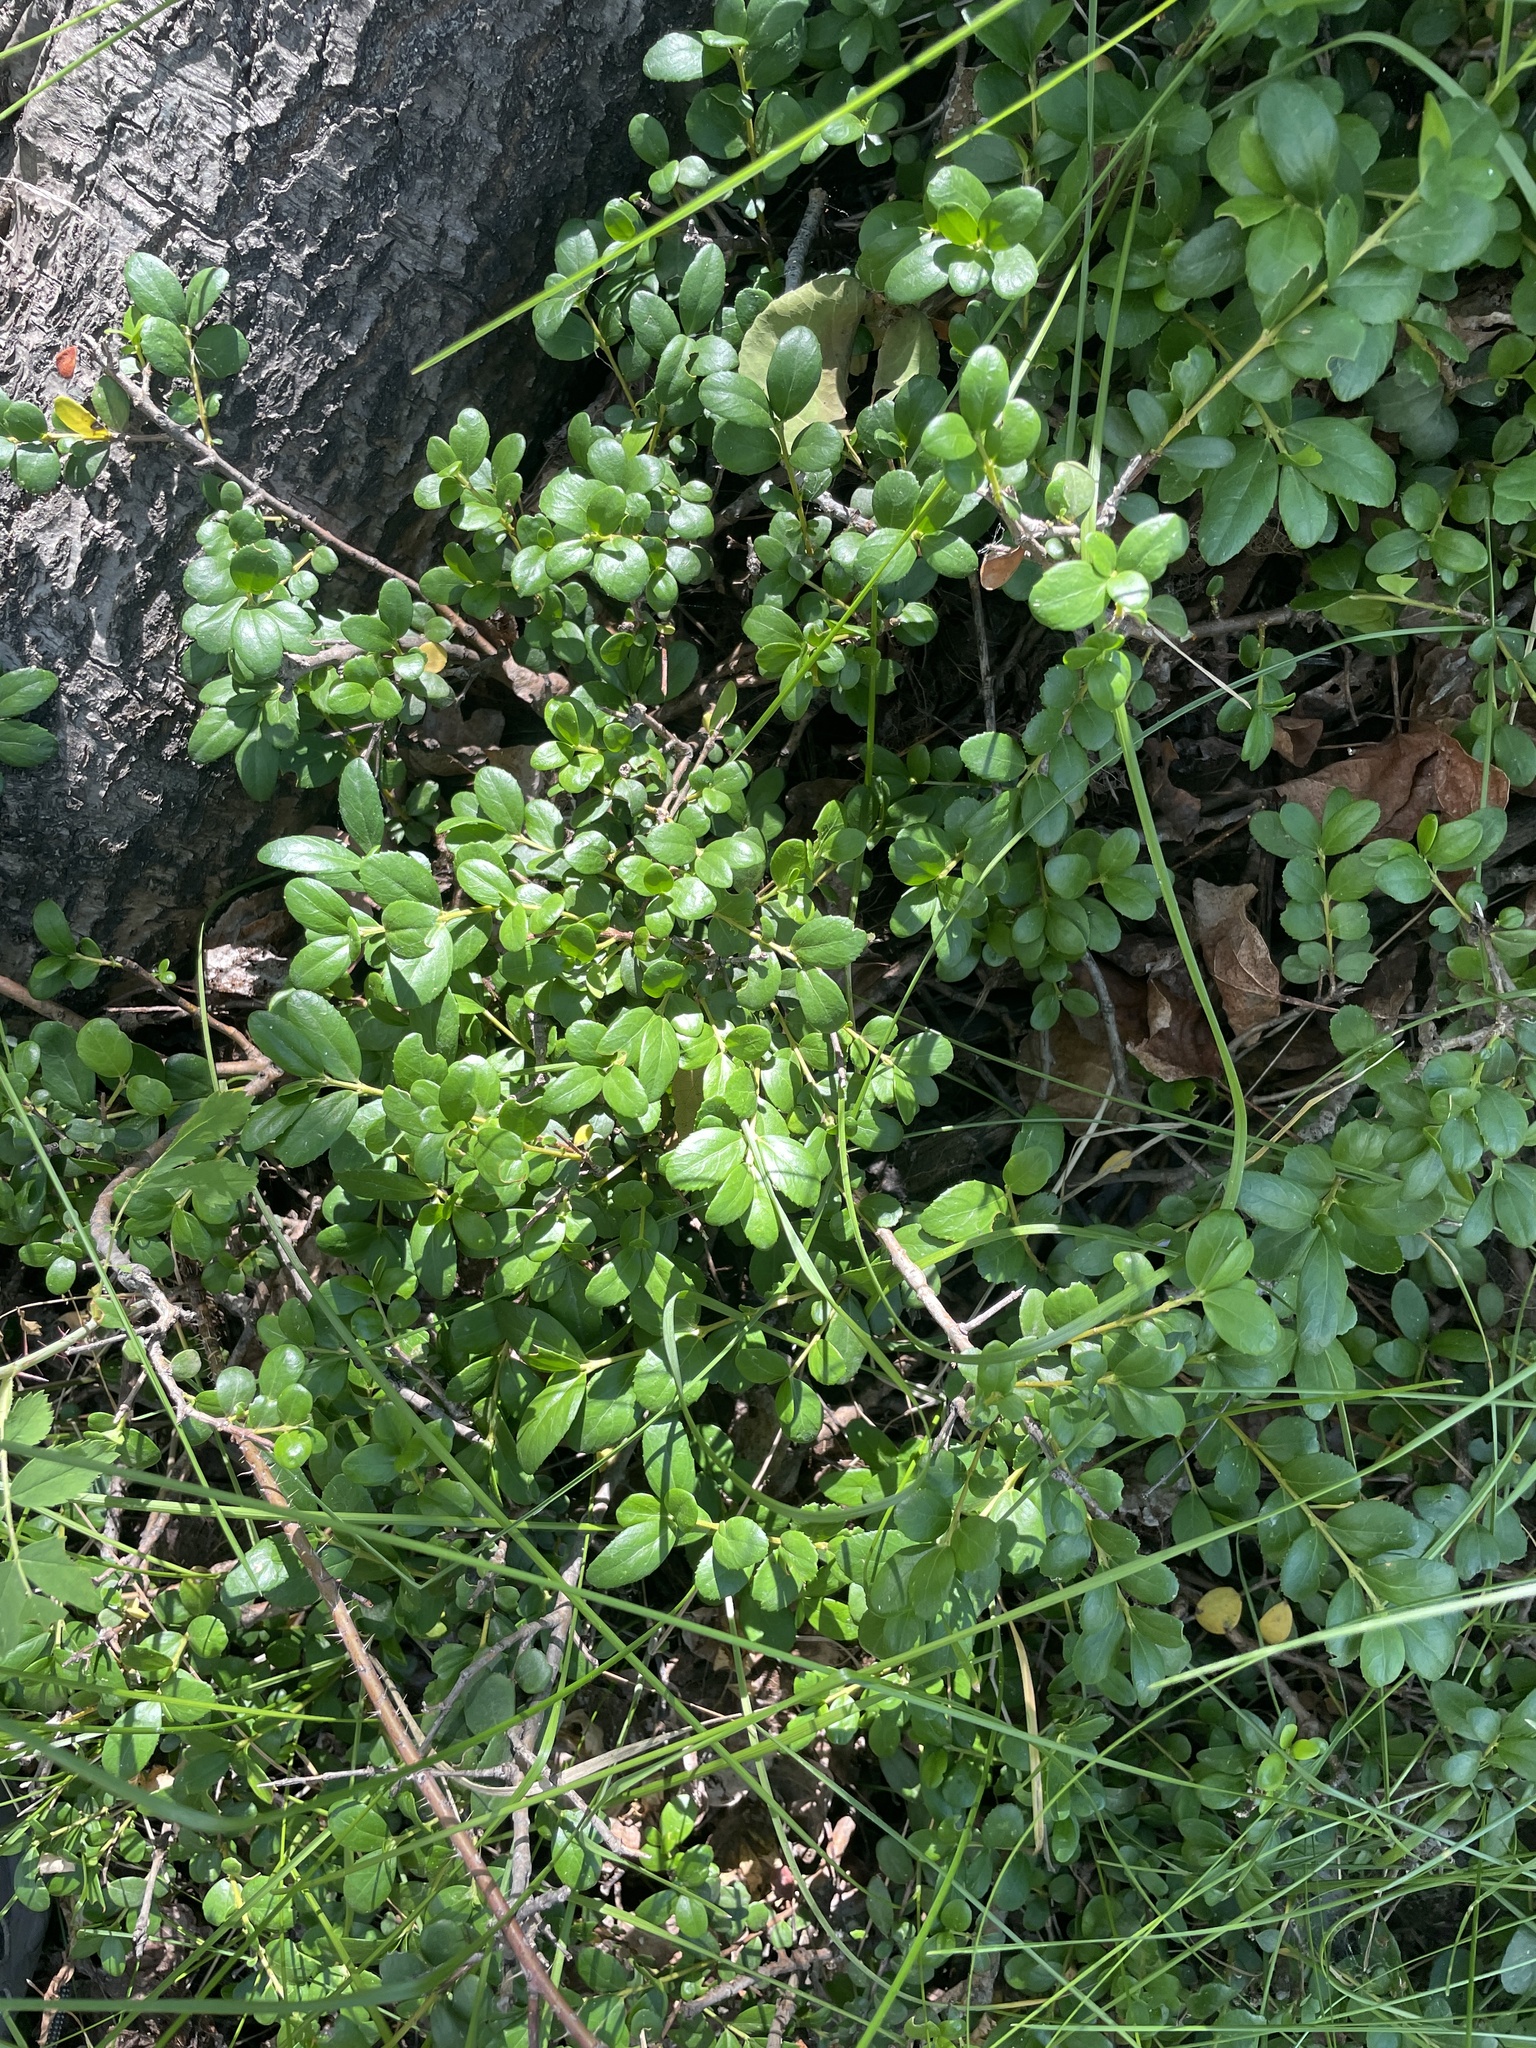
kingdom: Plantae
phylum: Tracheophyta
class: Magnoliopsida
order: Celastrales
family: Celastraceae
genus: Paxistima
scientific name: Paxistima myrsinites
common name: Mountain-lover
